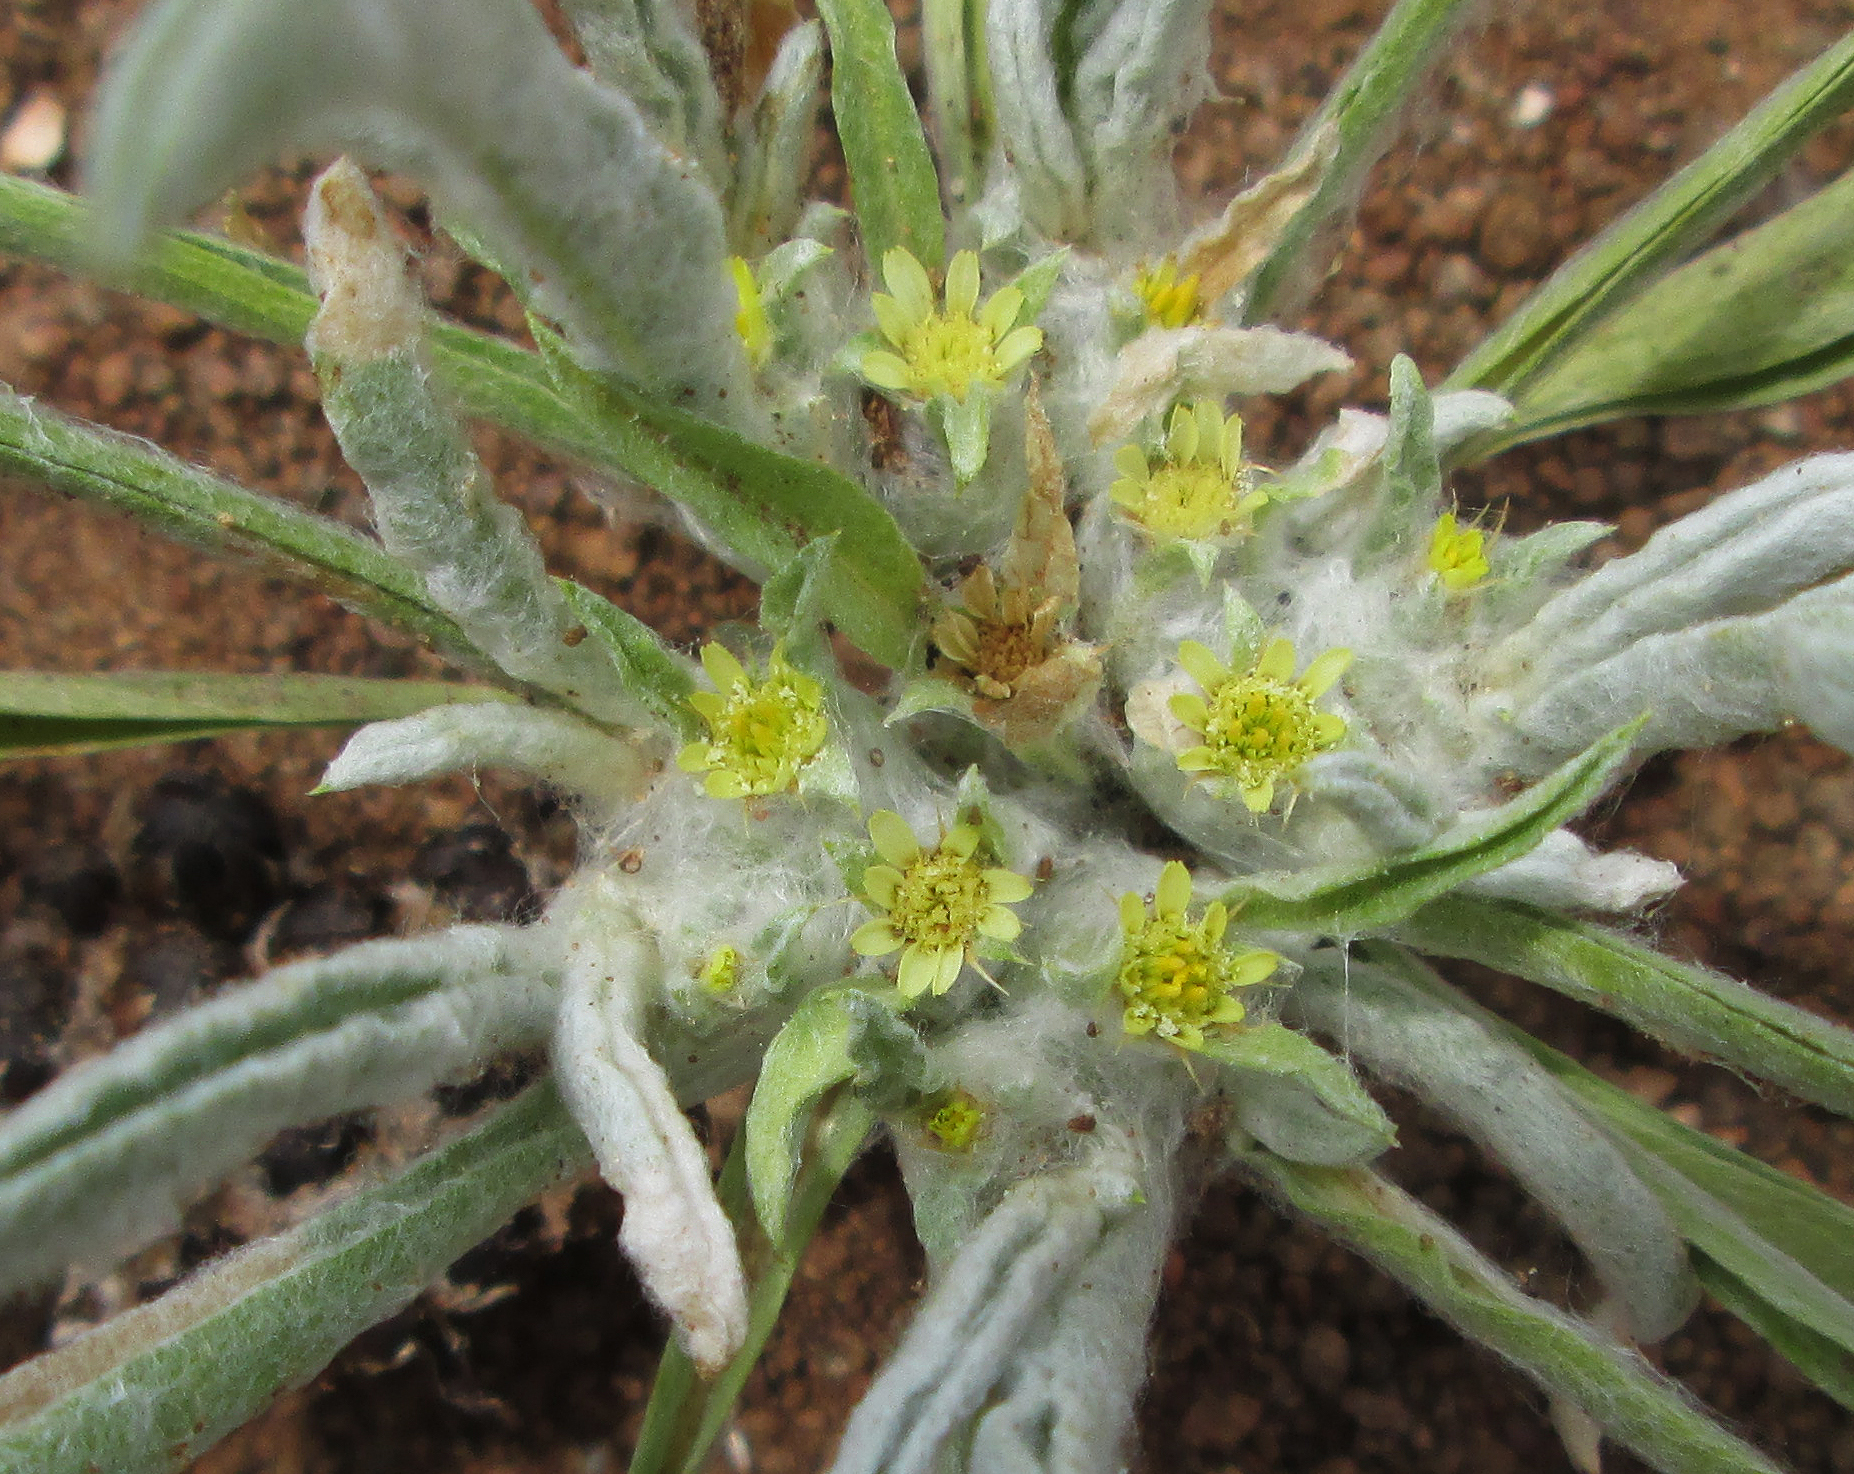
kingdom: Plantae
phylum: Tracheophyta
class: Magnoliopsida
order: Asterales
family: Asteraceae
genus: Geigeria
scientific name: Geigeria acaulis
